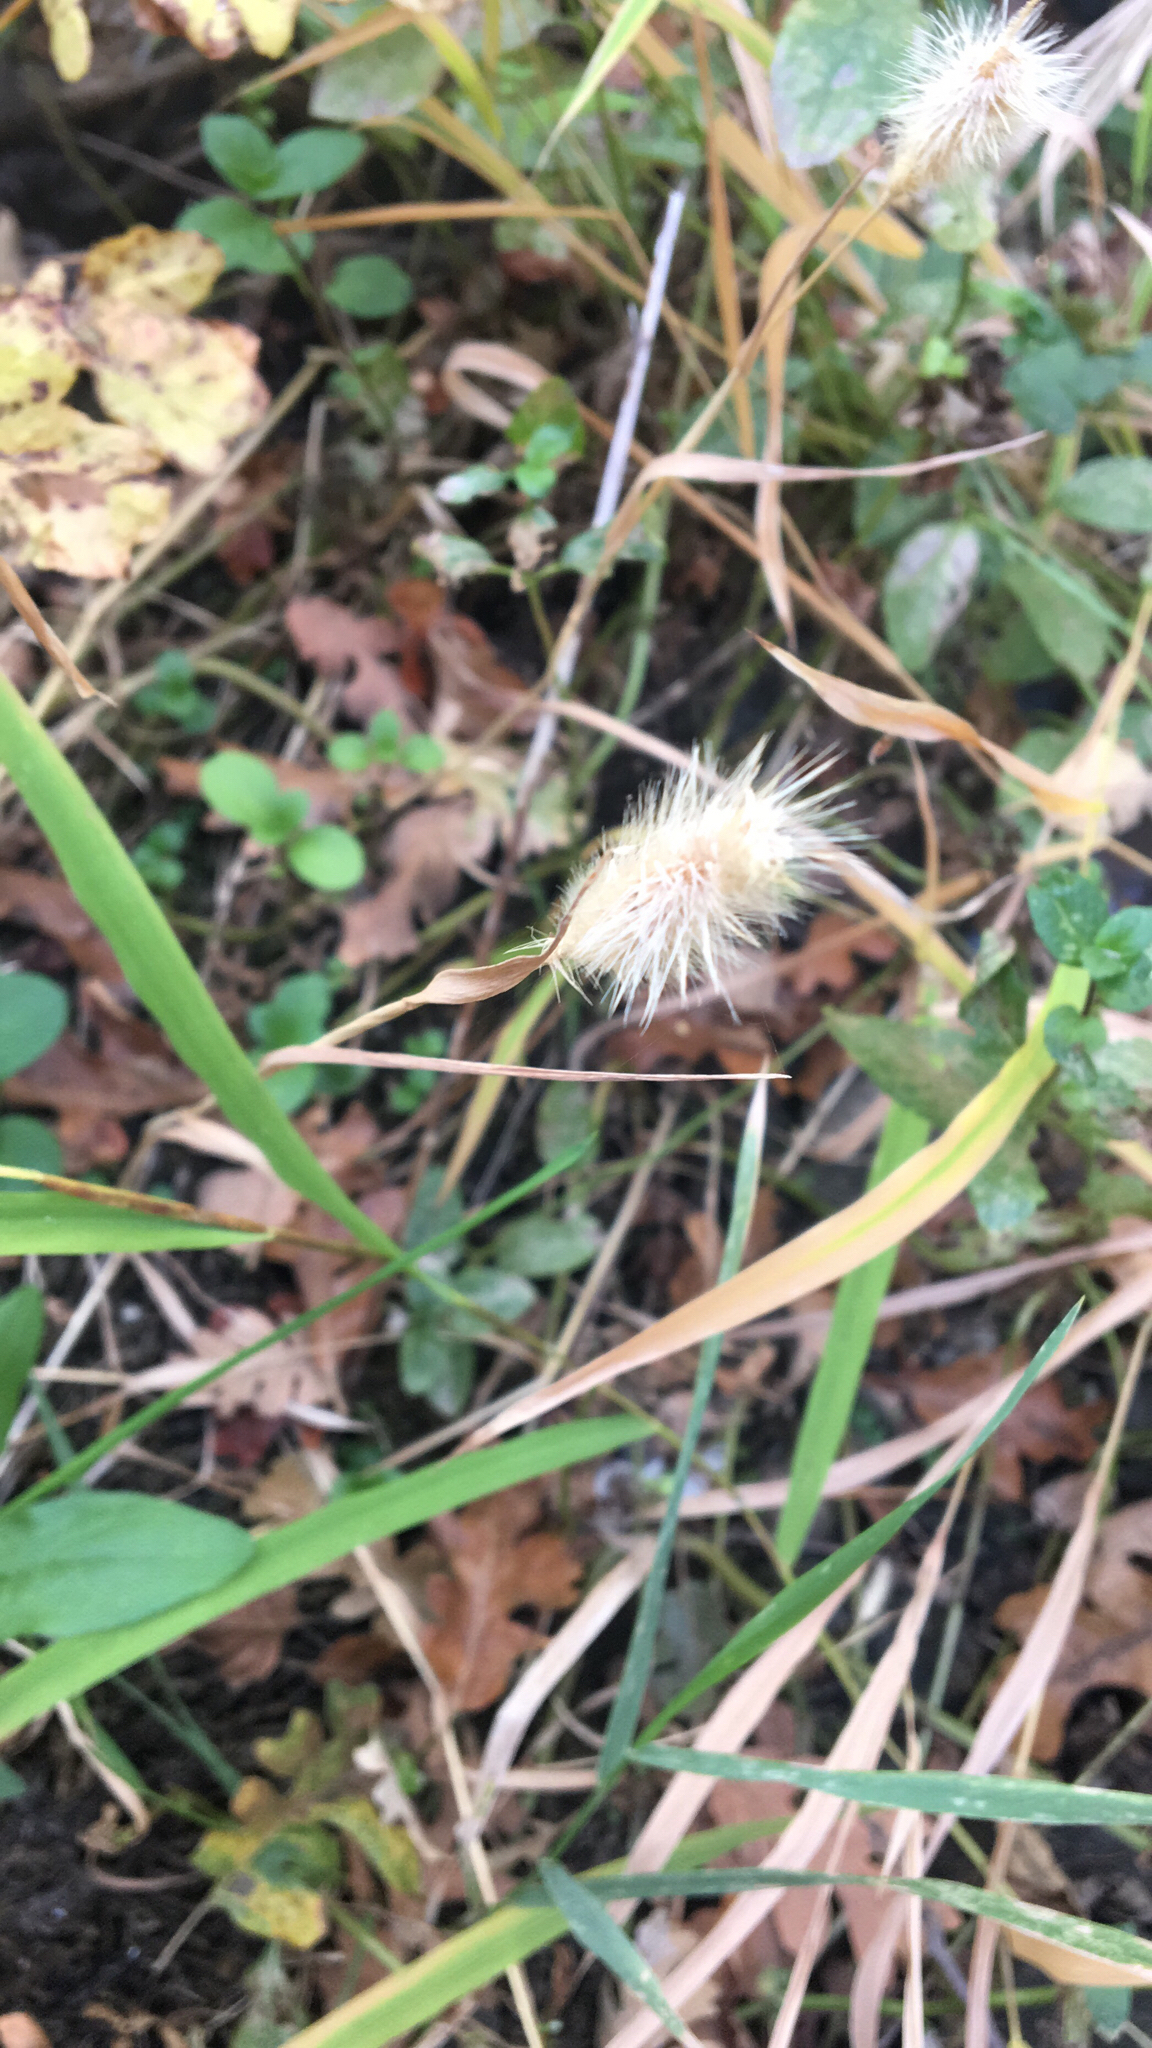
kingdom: Plantae
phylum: Tracheophyta
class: Liliopsida
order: Poales
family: Poaceae
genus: Cynosurus
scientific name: Cynosurus echinatus
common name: Rough dog's-tail
